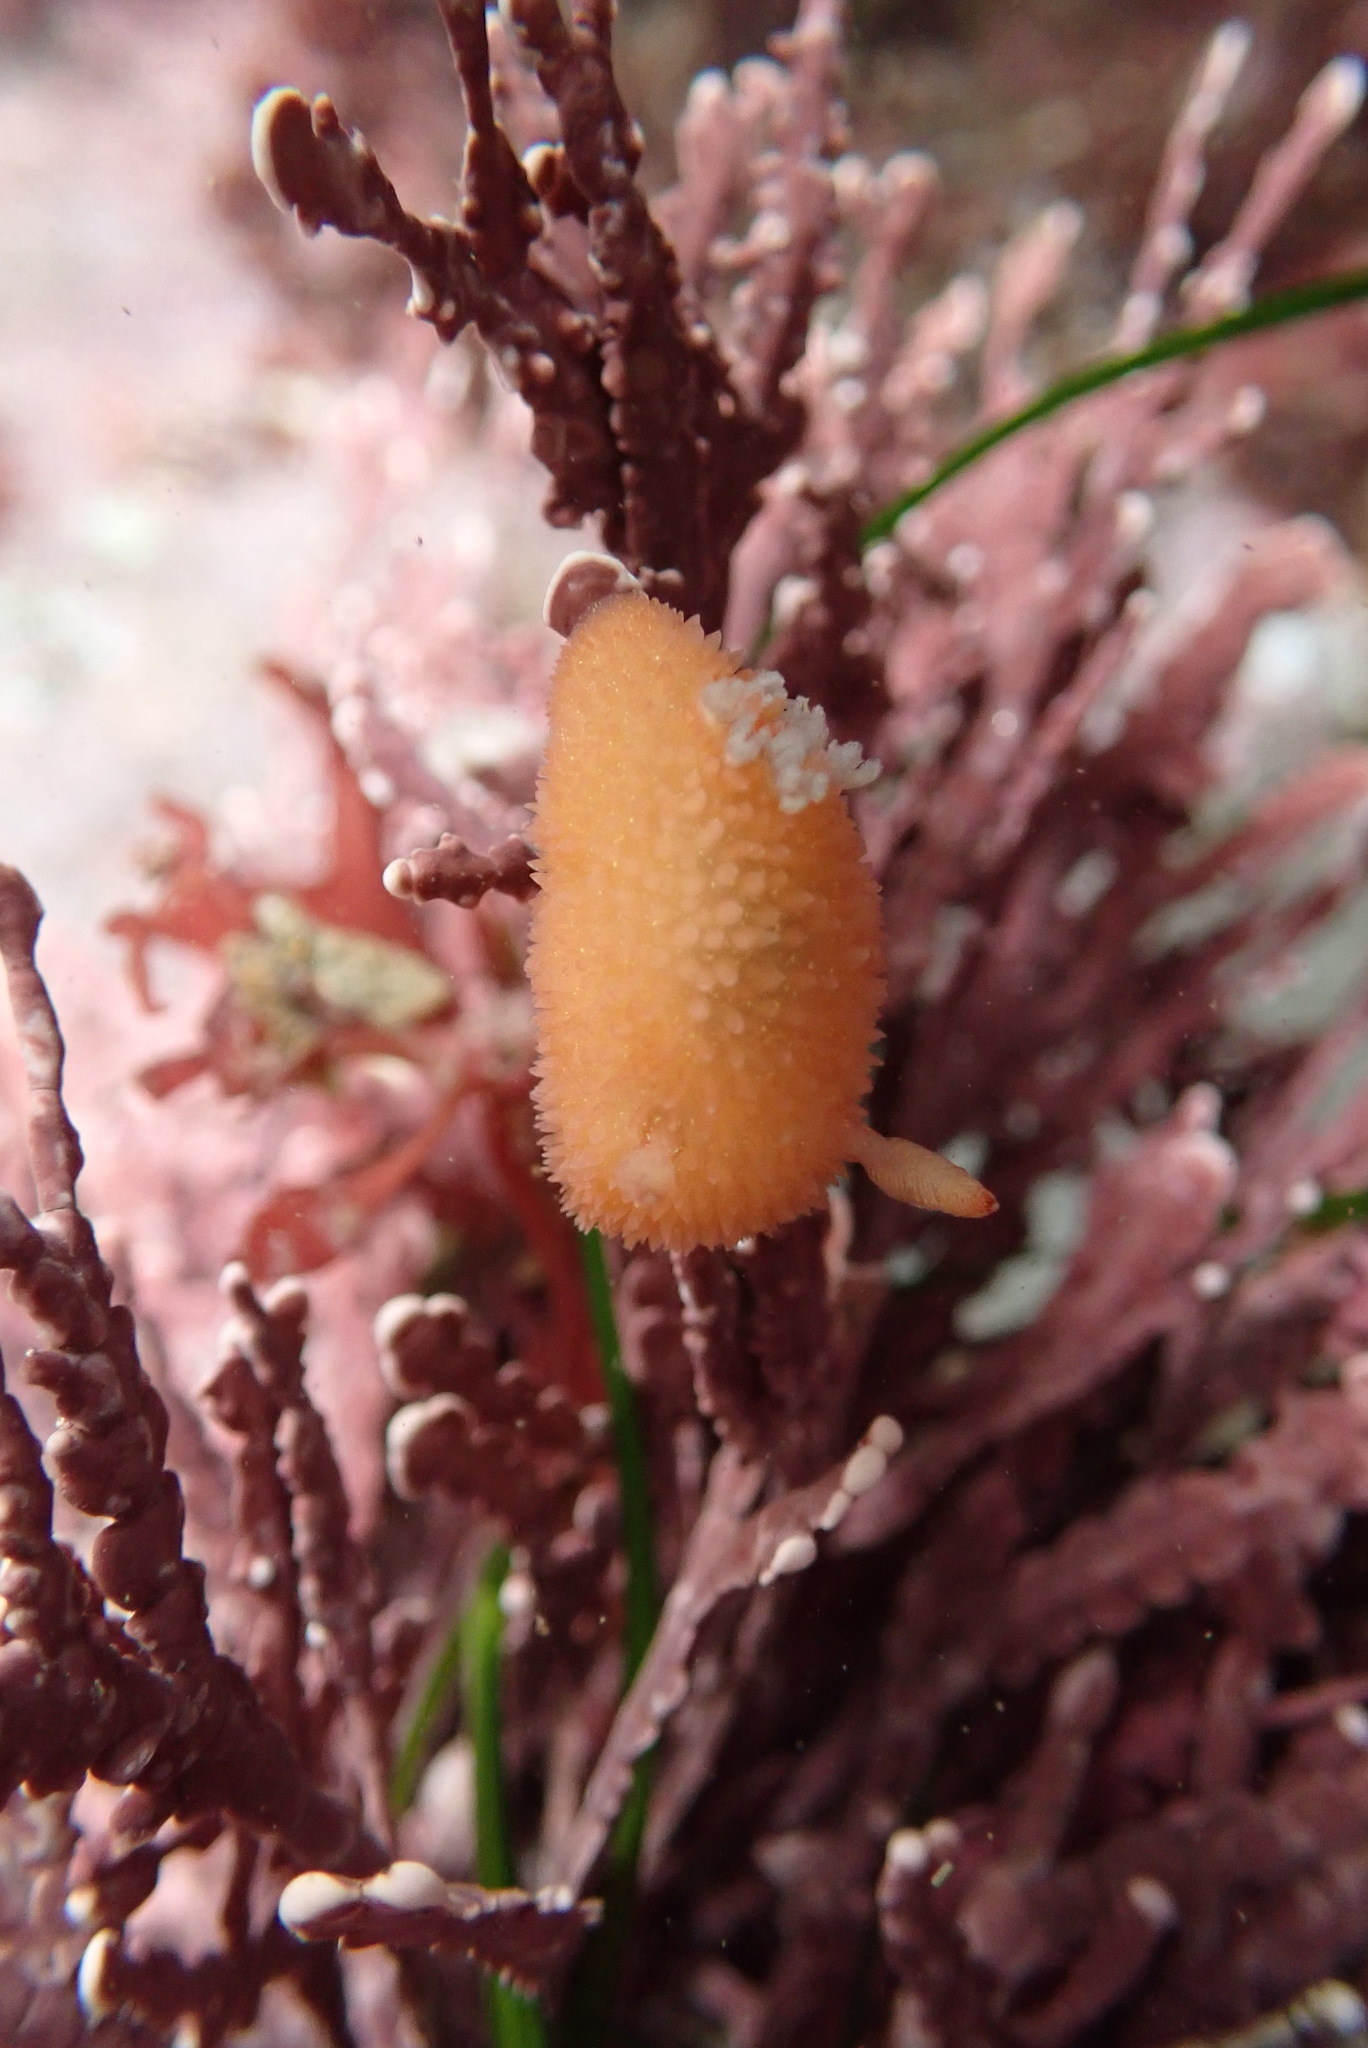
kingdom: Animalia
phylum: Mollusca
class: Gastropoda
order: Nudibranchia
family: Onchidorididae
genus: Acanthodoris
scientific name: Acanthodoris lutea
